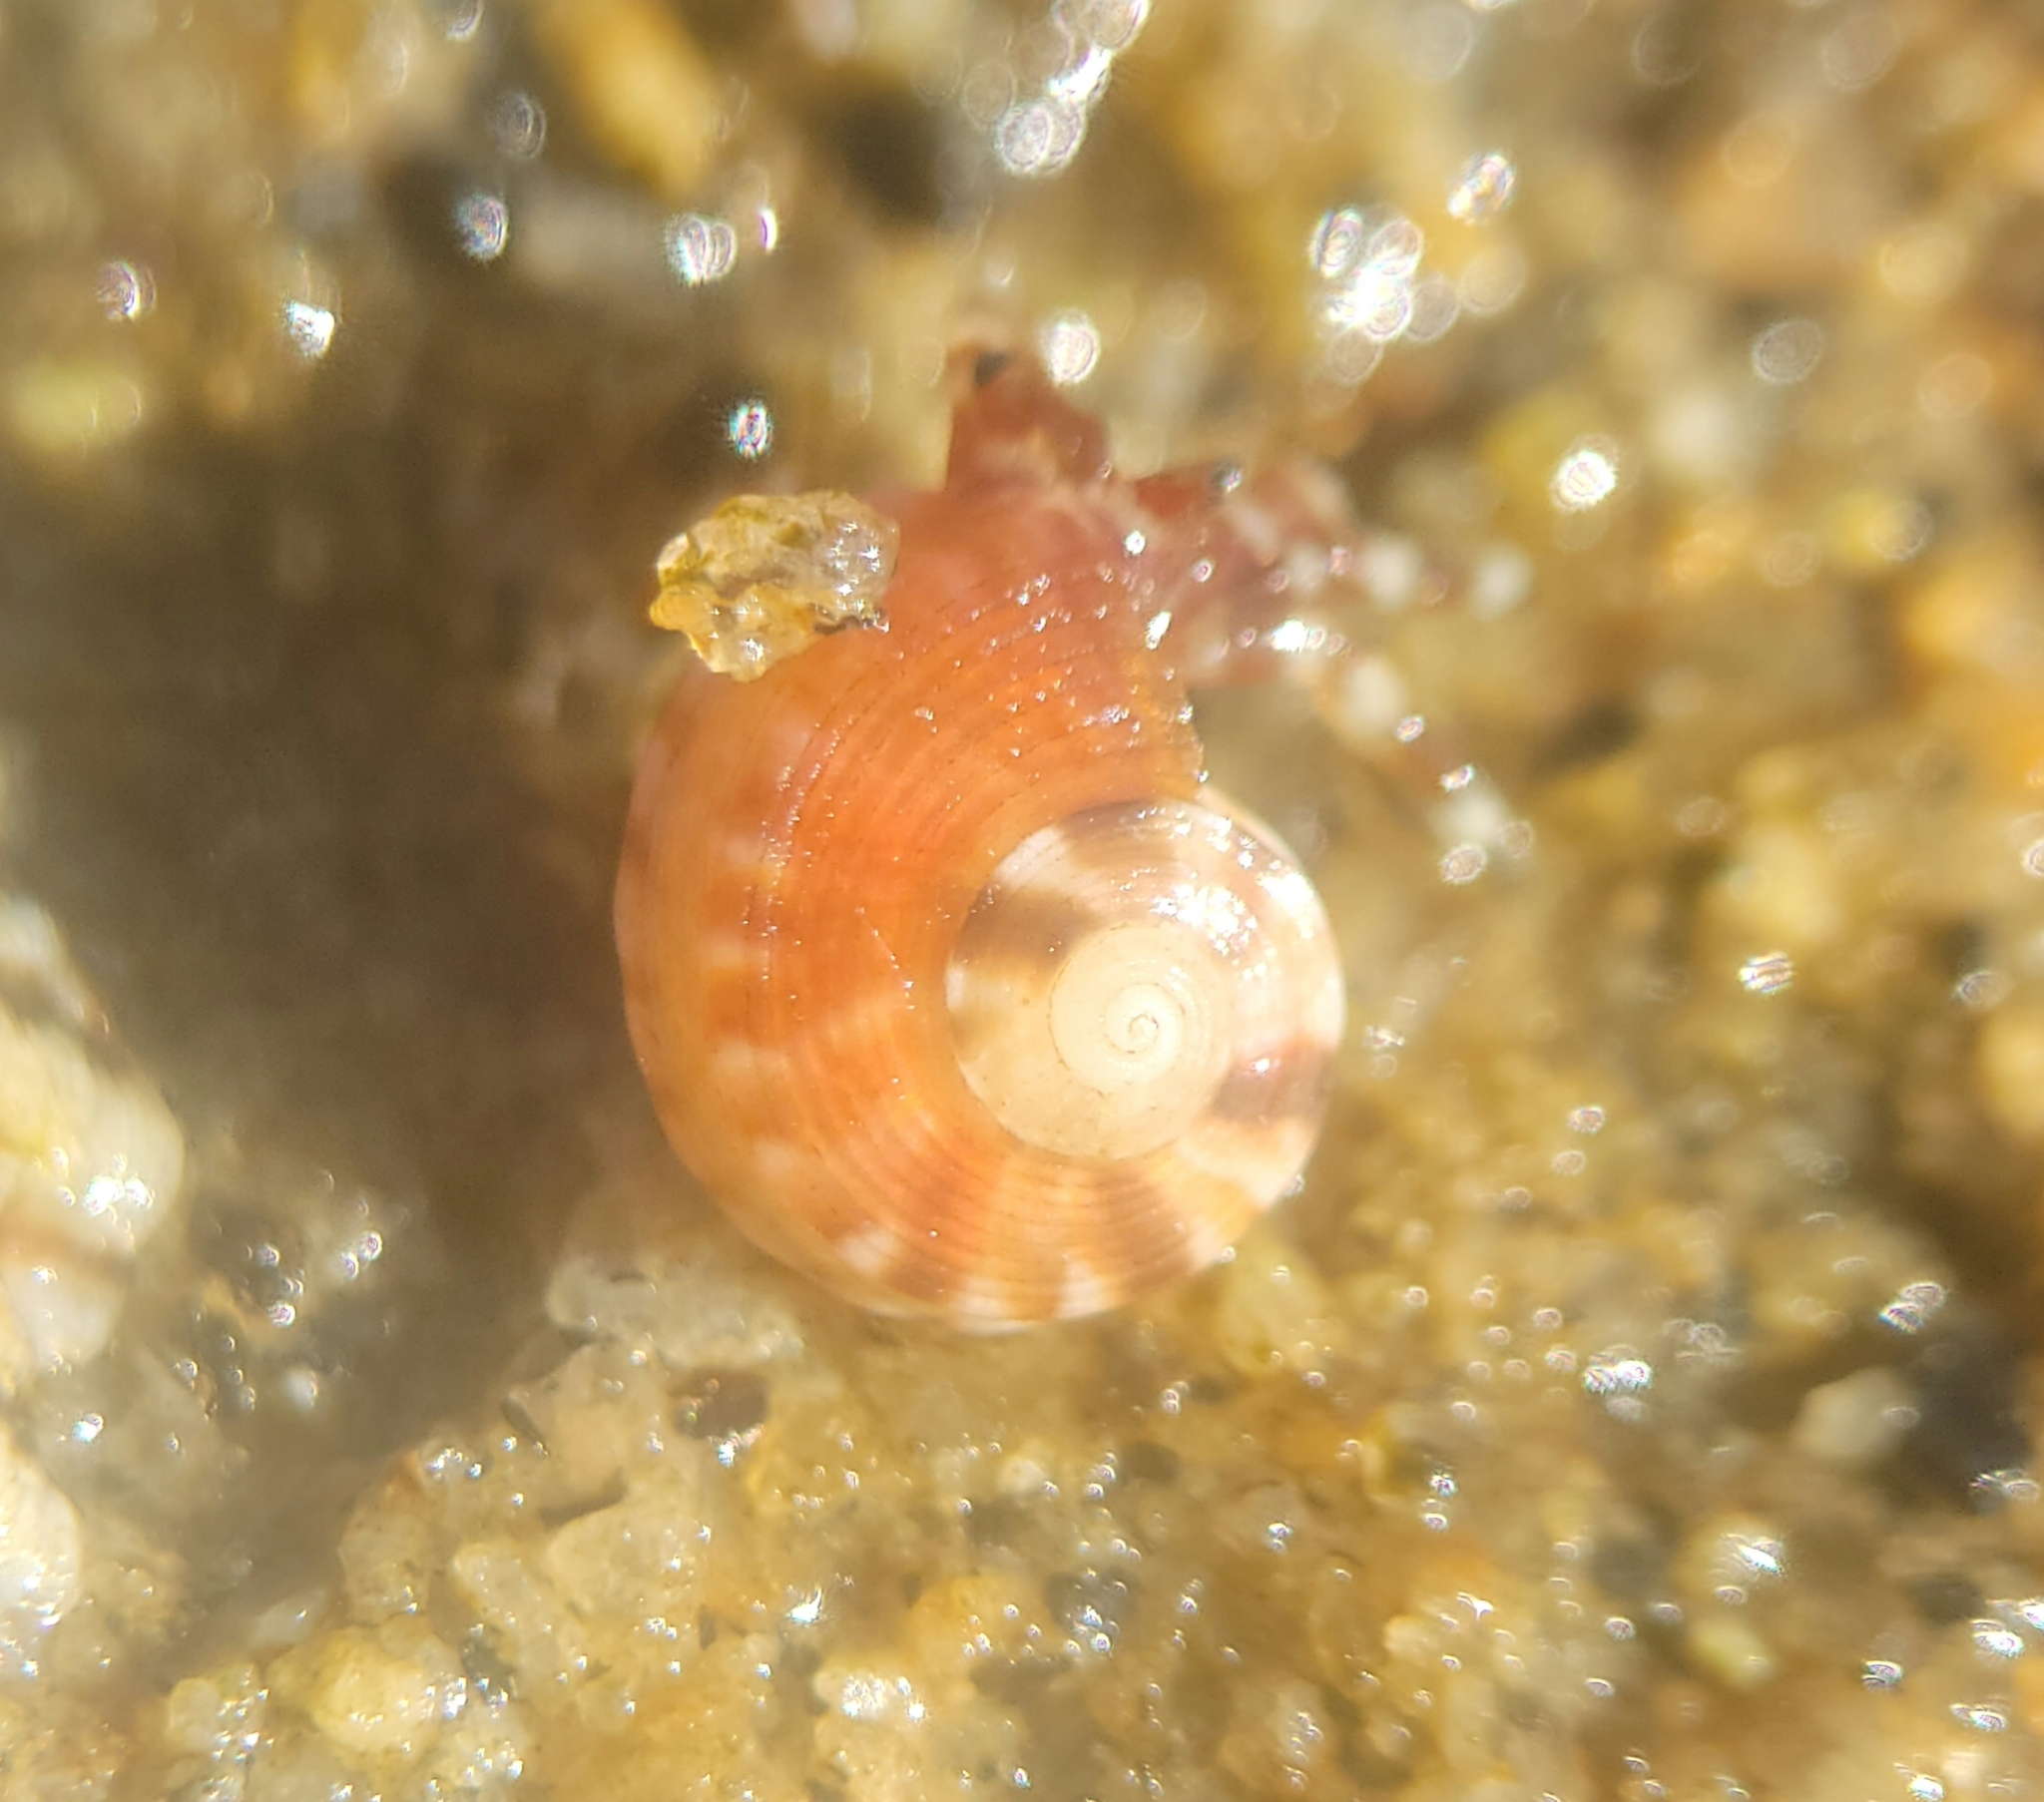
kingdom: Animalia
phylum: Mollusca
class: Gastropoda
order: Trochida
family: Tegulidae
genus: Norrisia
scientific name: Norrisia norrisii
